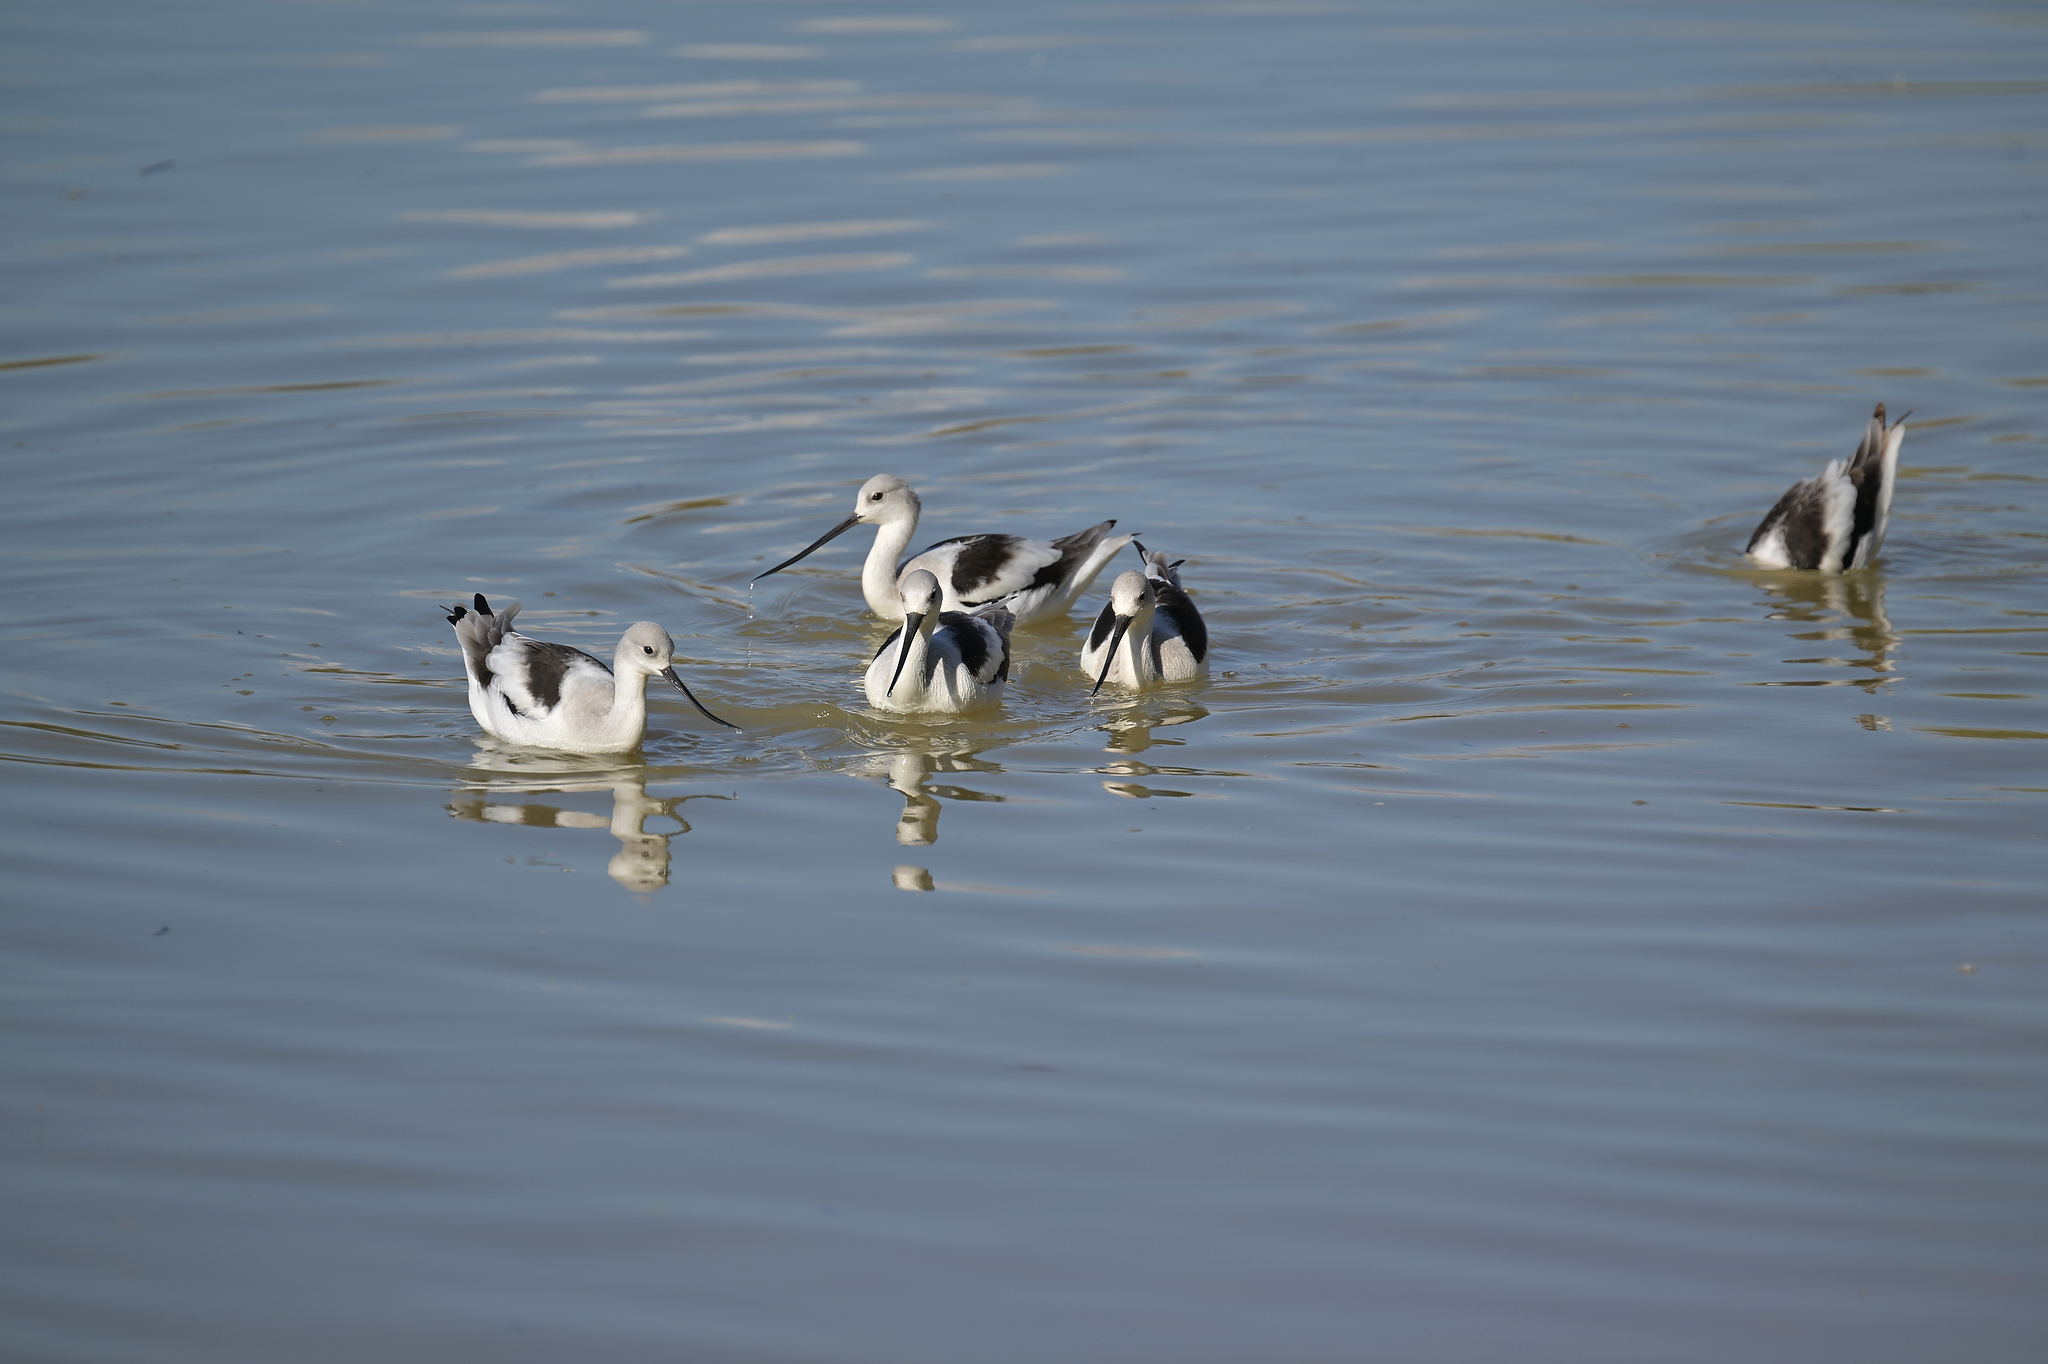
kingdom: Animalia
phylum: Chordata
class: Aves
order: Charadriiformes
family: Recurvirostridae
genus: Recurvirostra
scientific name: Recurvirostra americana
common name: American avocet
